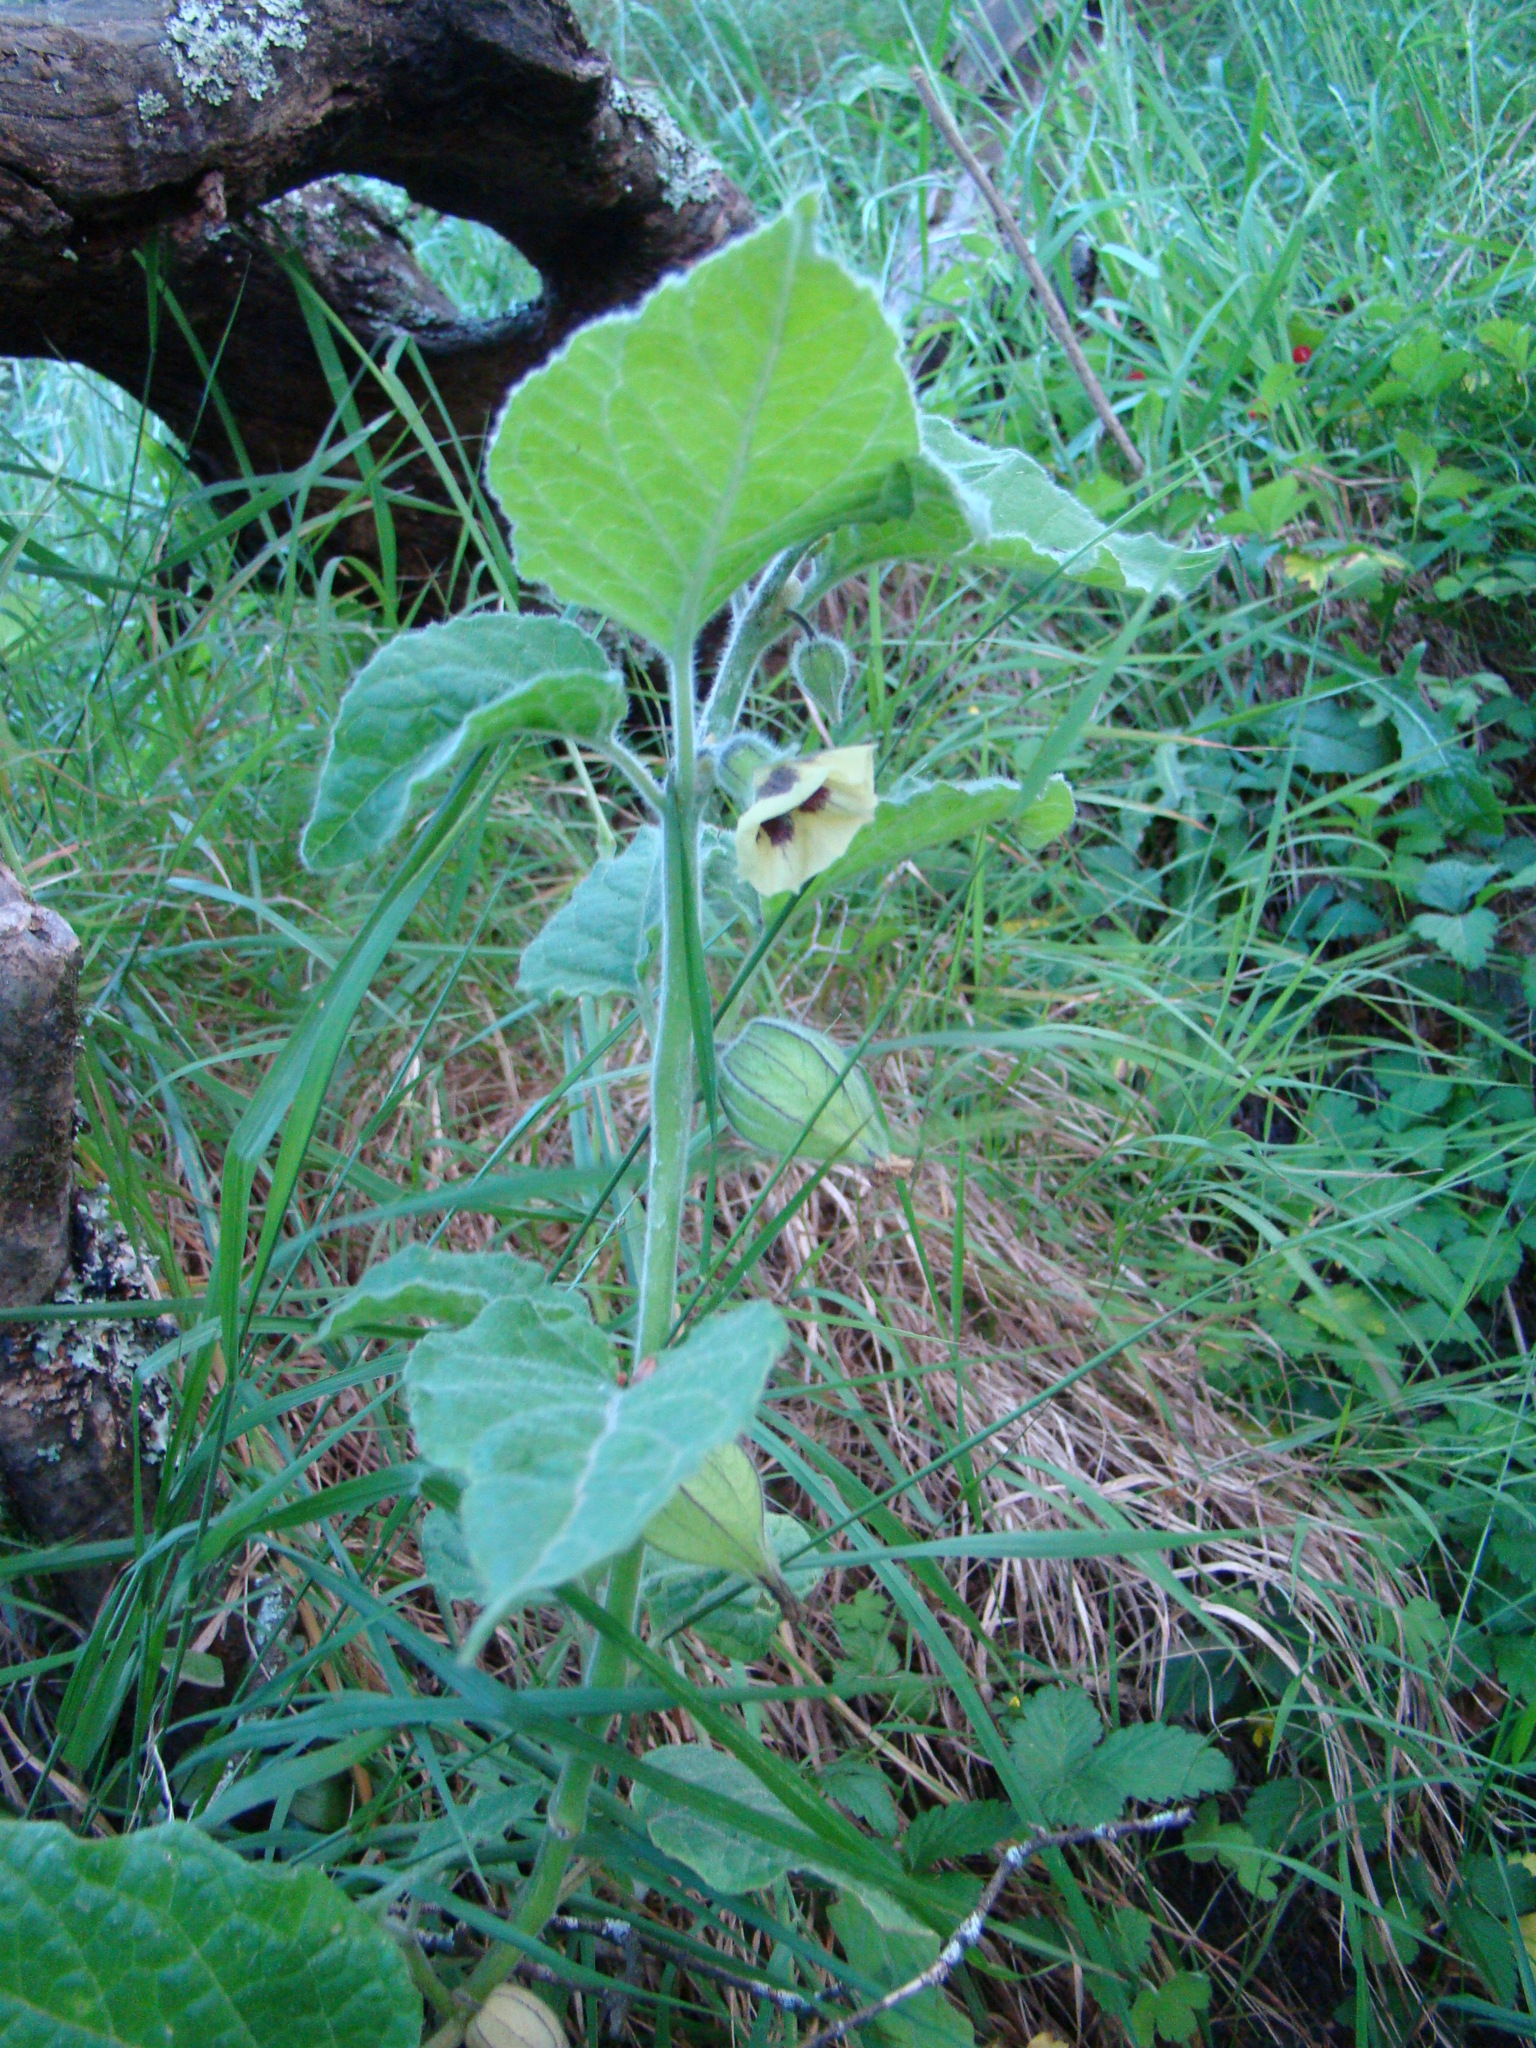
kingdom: Plantae
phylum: Tracheophyta
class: Magnoliopsida
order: Solanales
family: Solanaceae
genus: Physalis
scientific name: Physalis peruviana
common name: Cape-gooseberry
